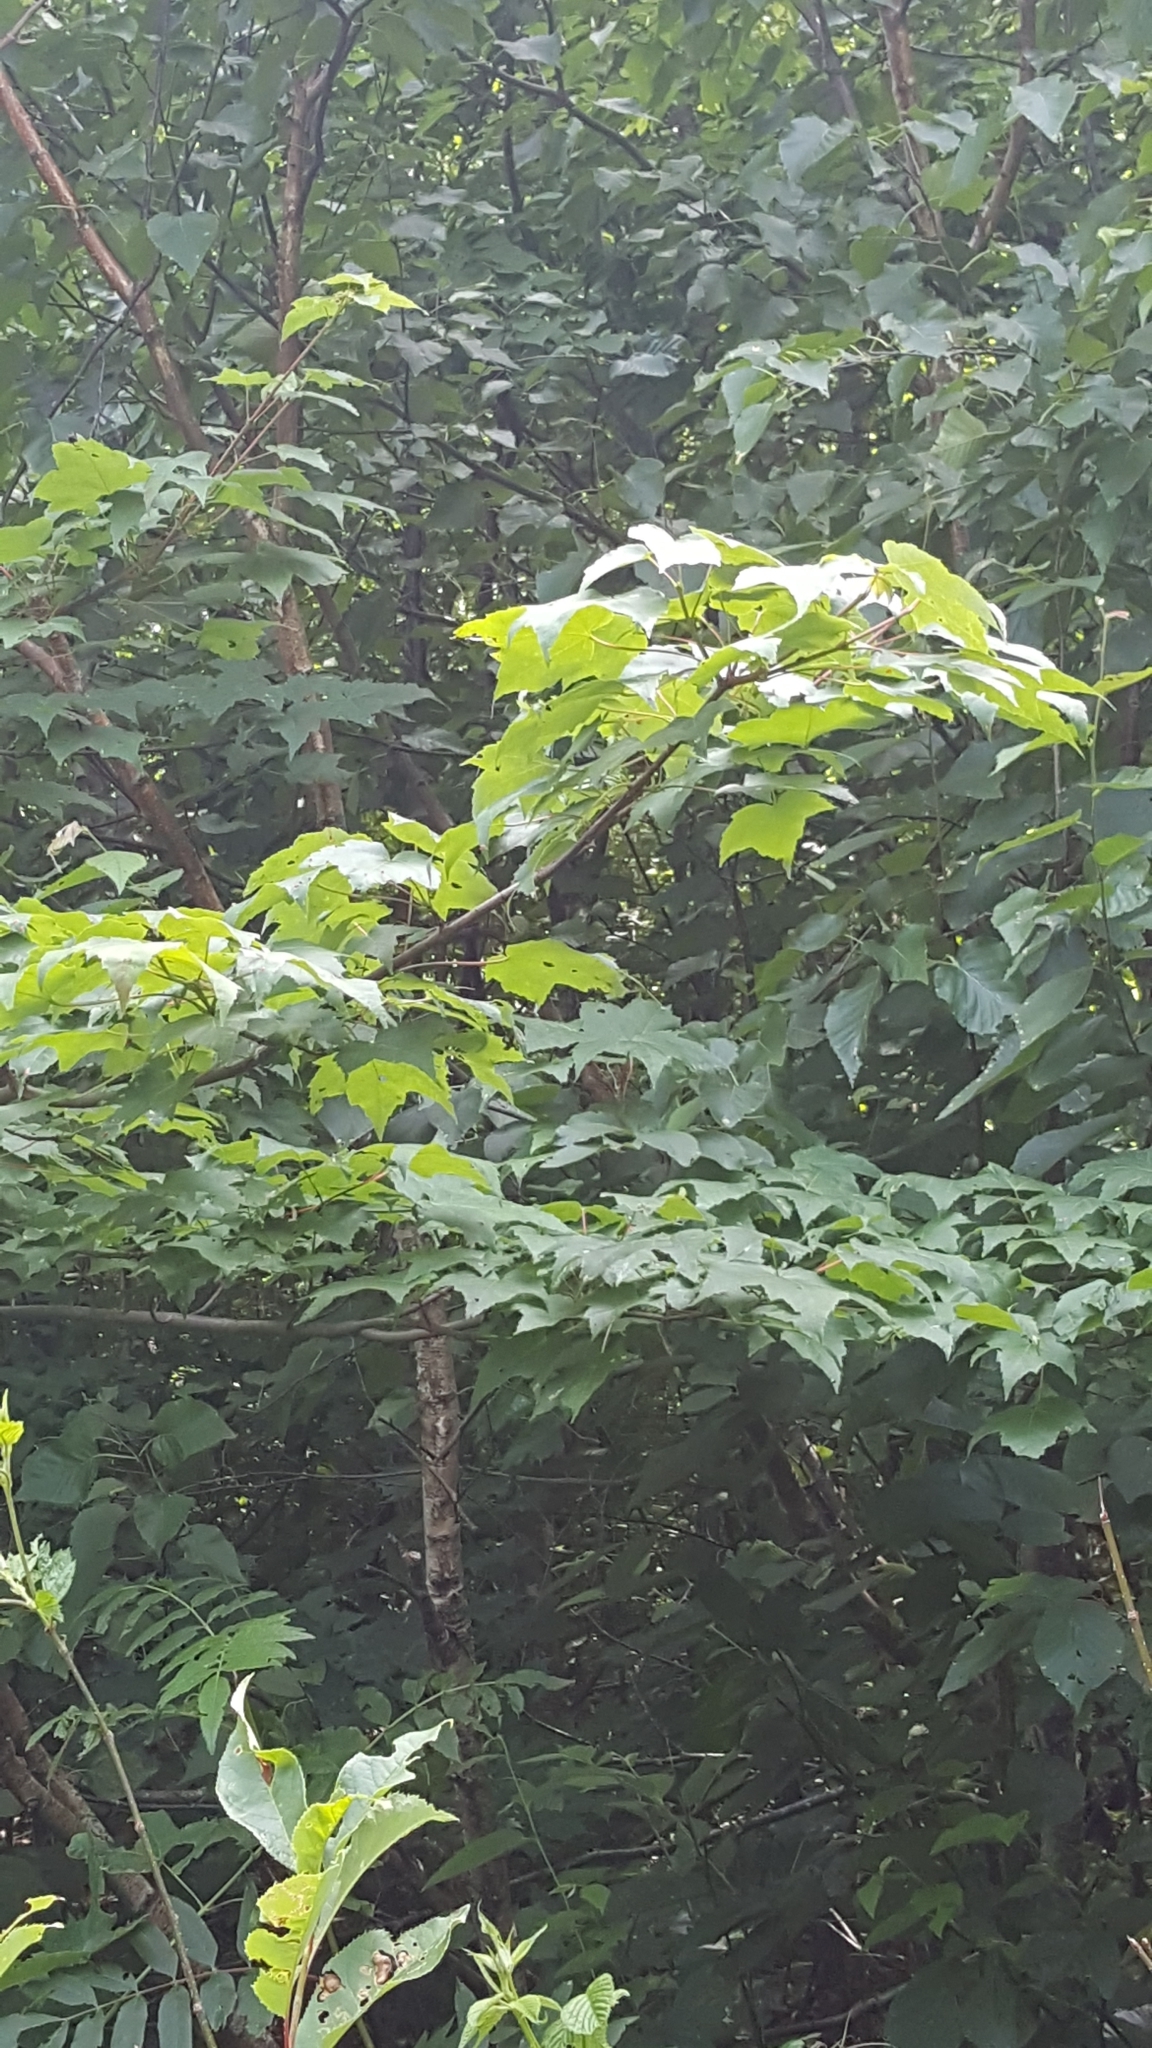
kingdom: Plantae
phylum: Tracheophyta
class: Magnoliopsida
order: Sapindales
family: Sapindaceae
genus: Acer
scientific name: Acer rubrum
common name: Red maple
